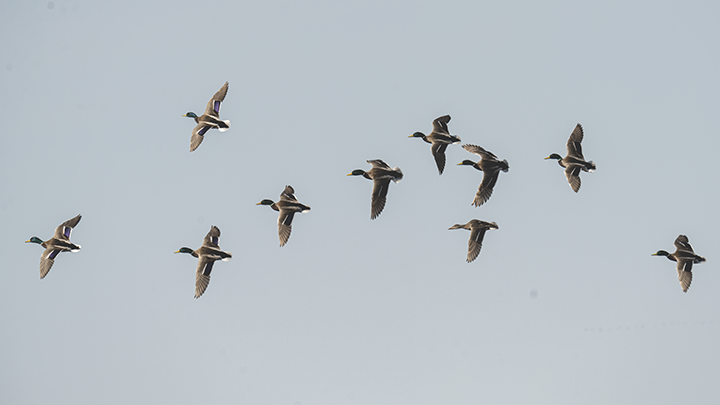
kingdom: Animalia
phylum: Chordata
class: Aves
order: Anseriformes
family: Anatidae
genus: Anas
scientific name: Anas platyrhynchos
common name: Mallard
